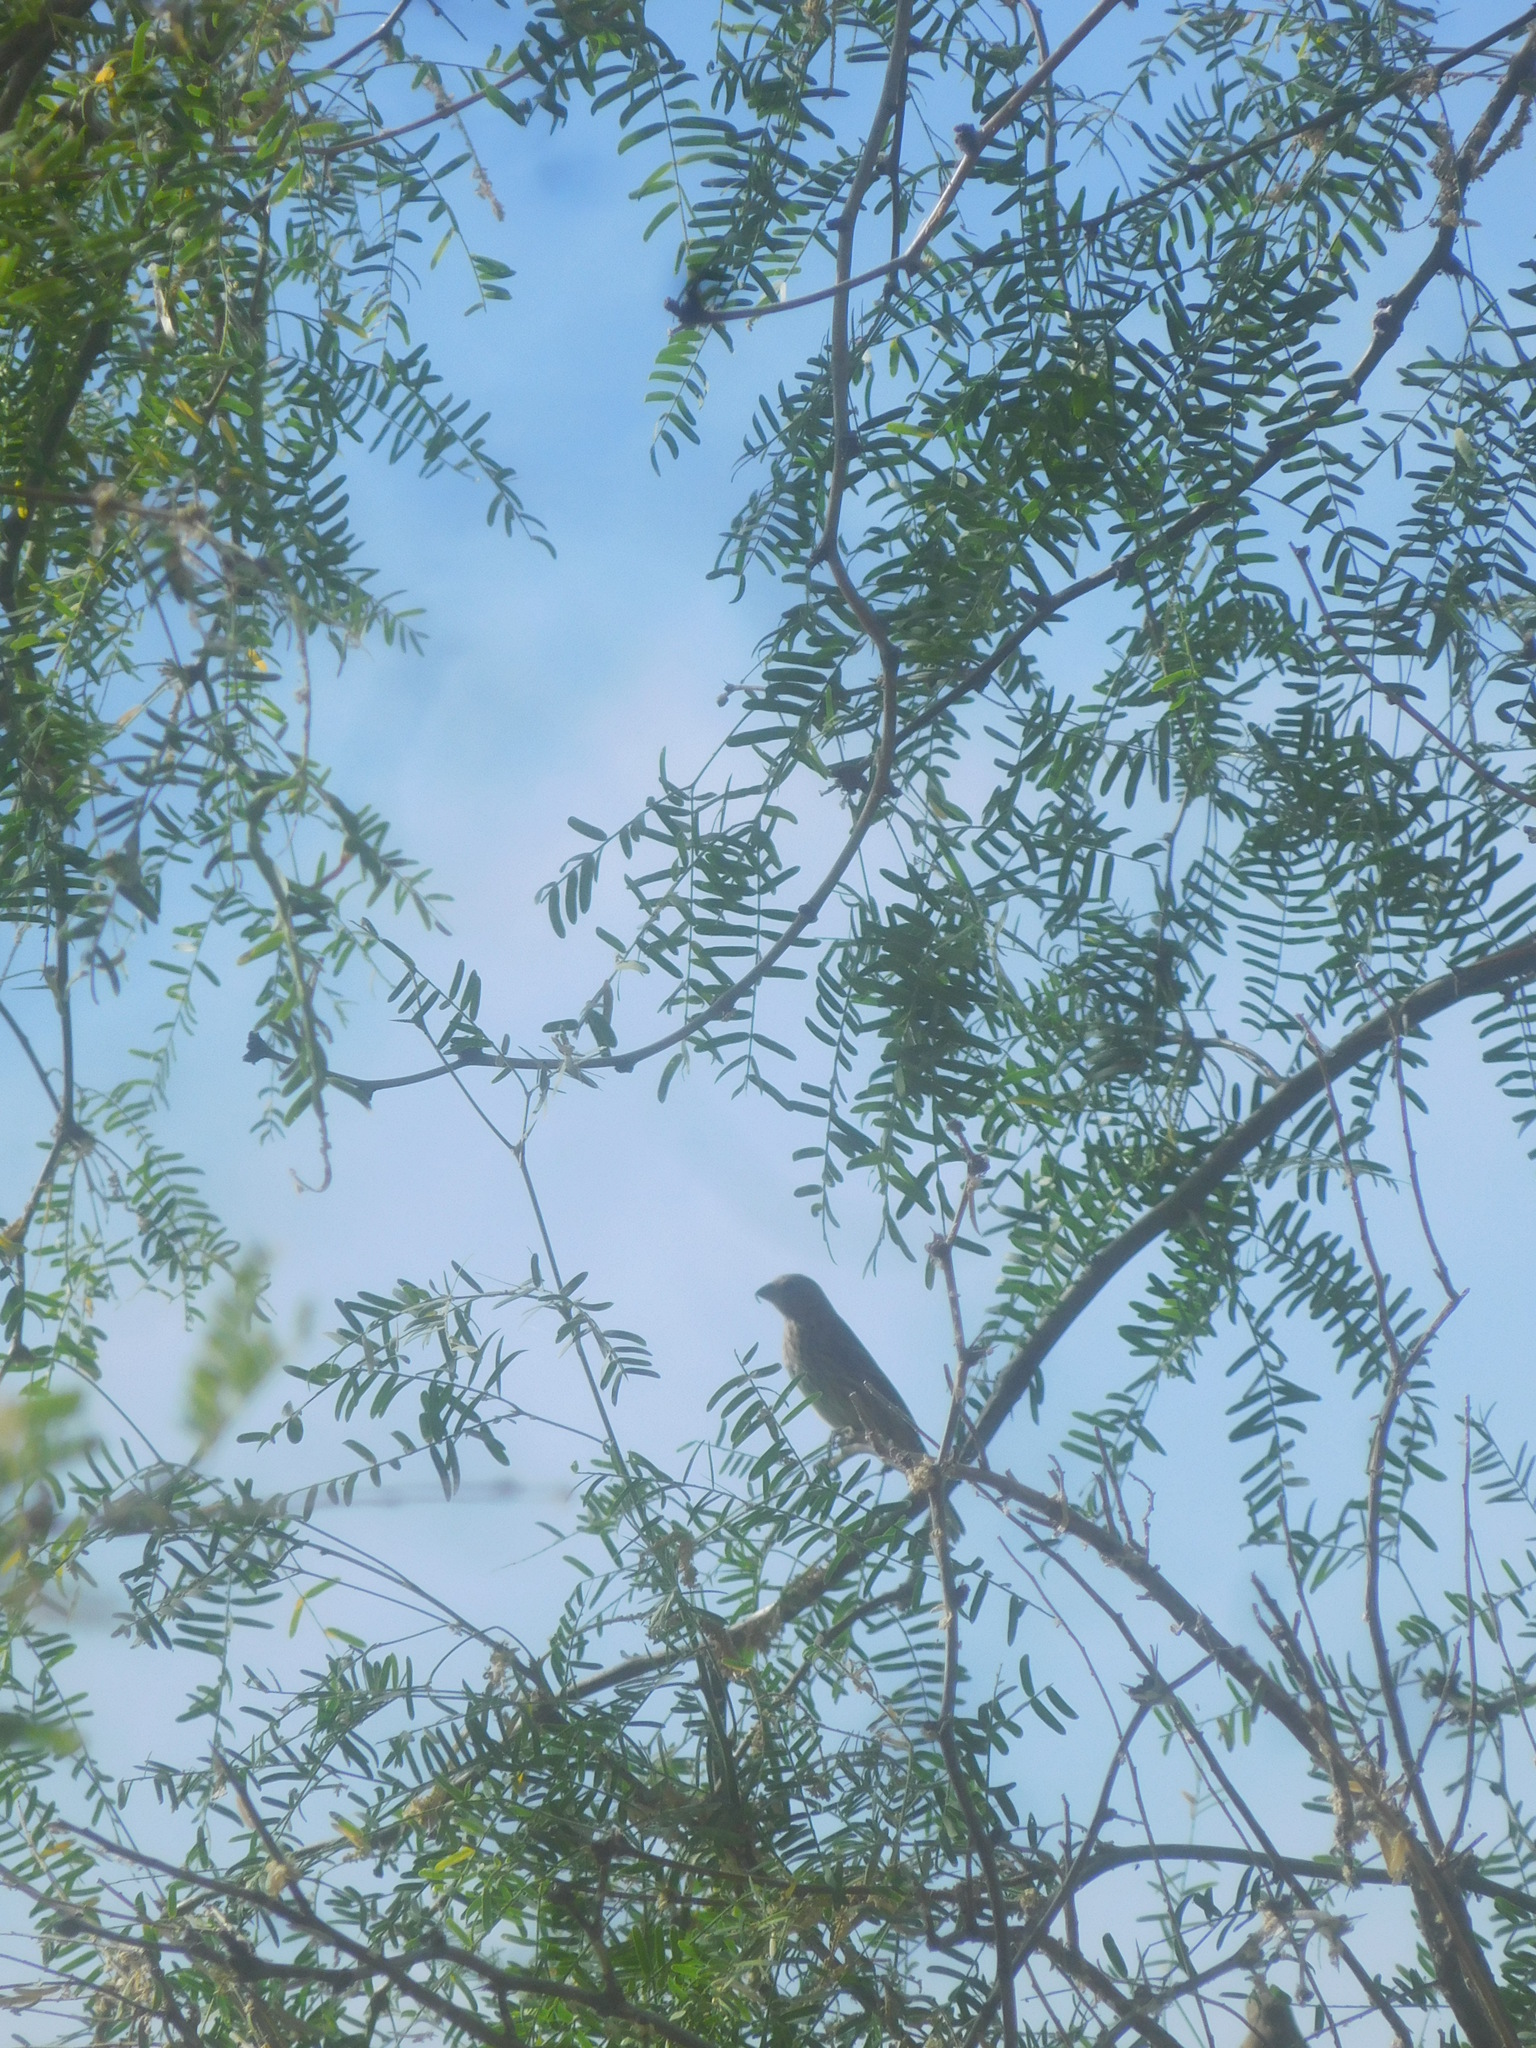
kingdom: Animalia
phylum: Chordata
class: Aves
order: Passeriformes
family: Fringillidae
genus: Haemorhous
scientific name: Haemorhous mexicanus
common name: House finch
